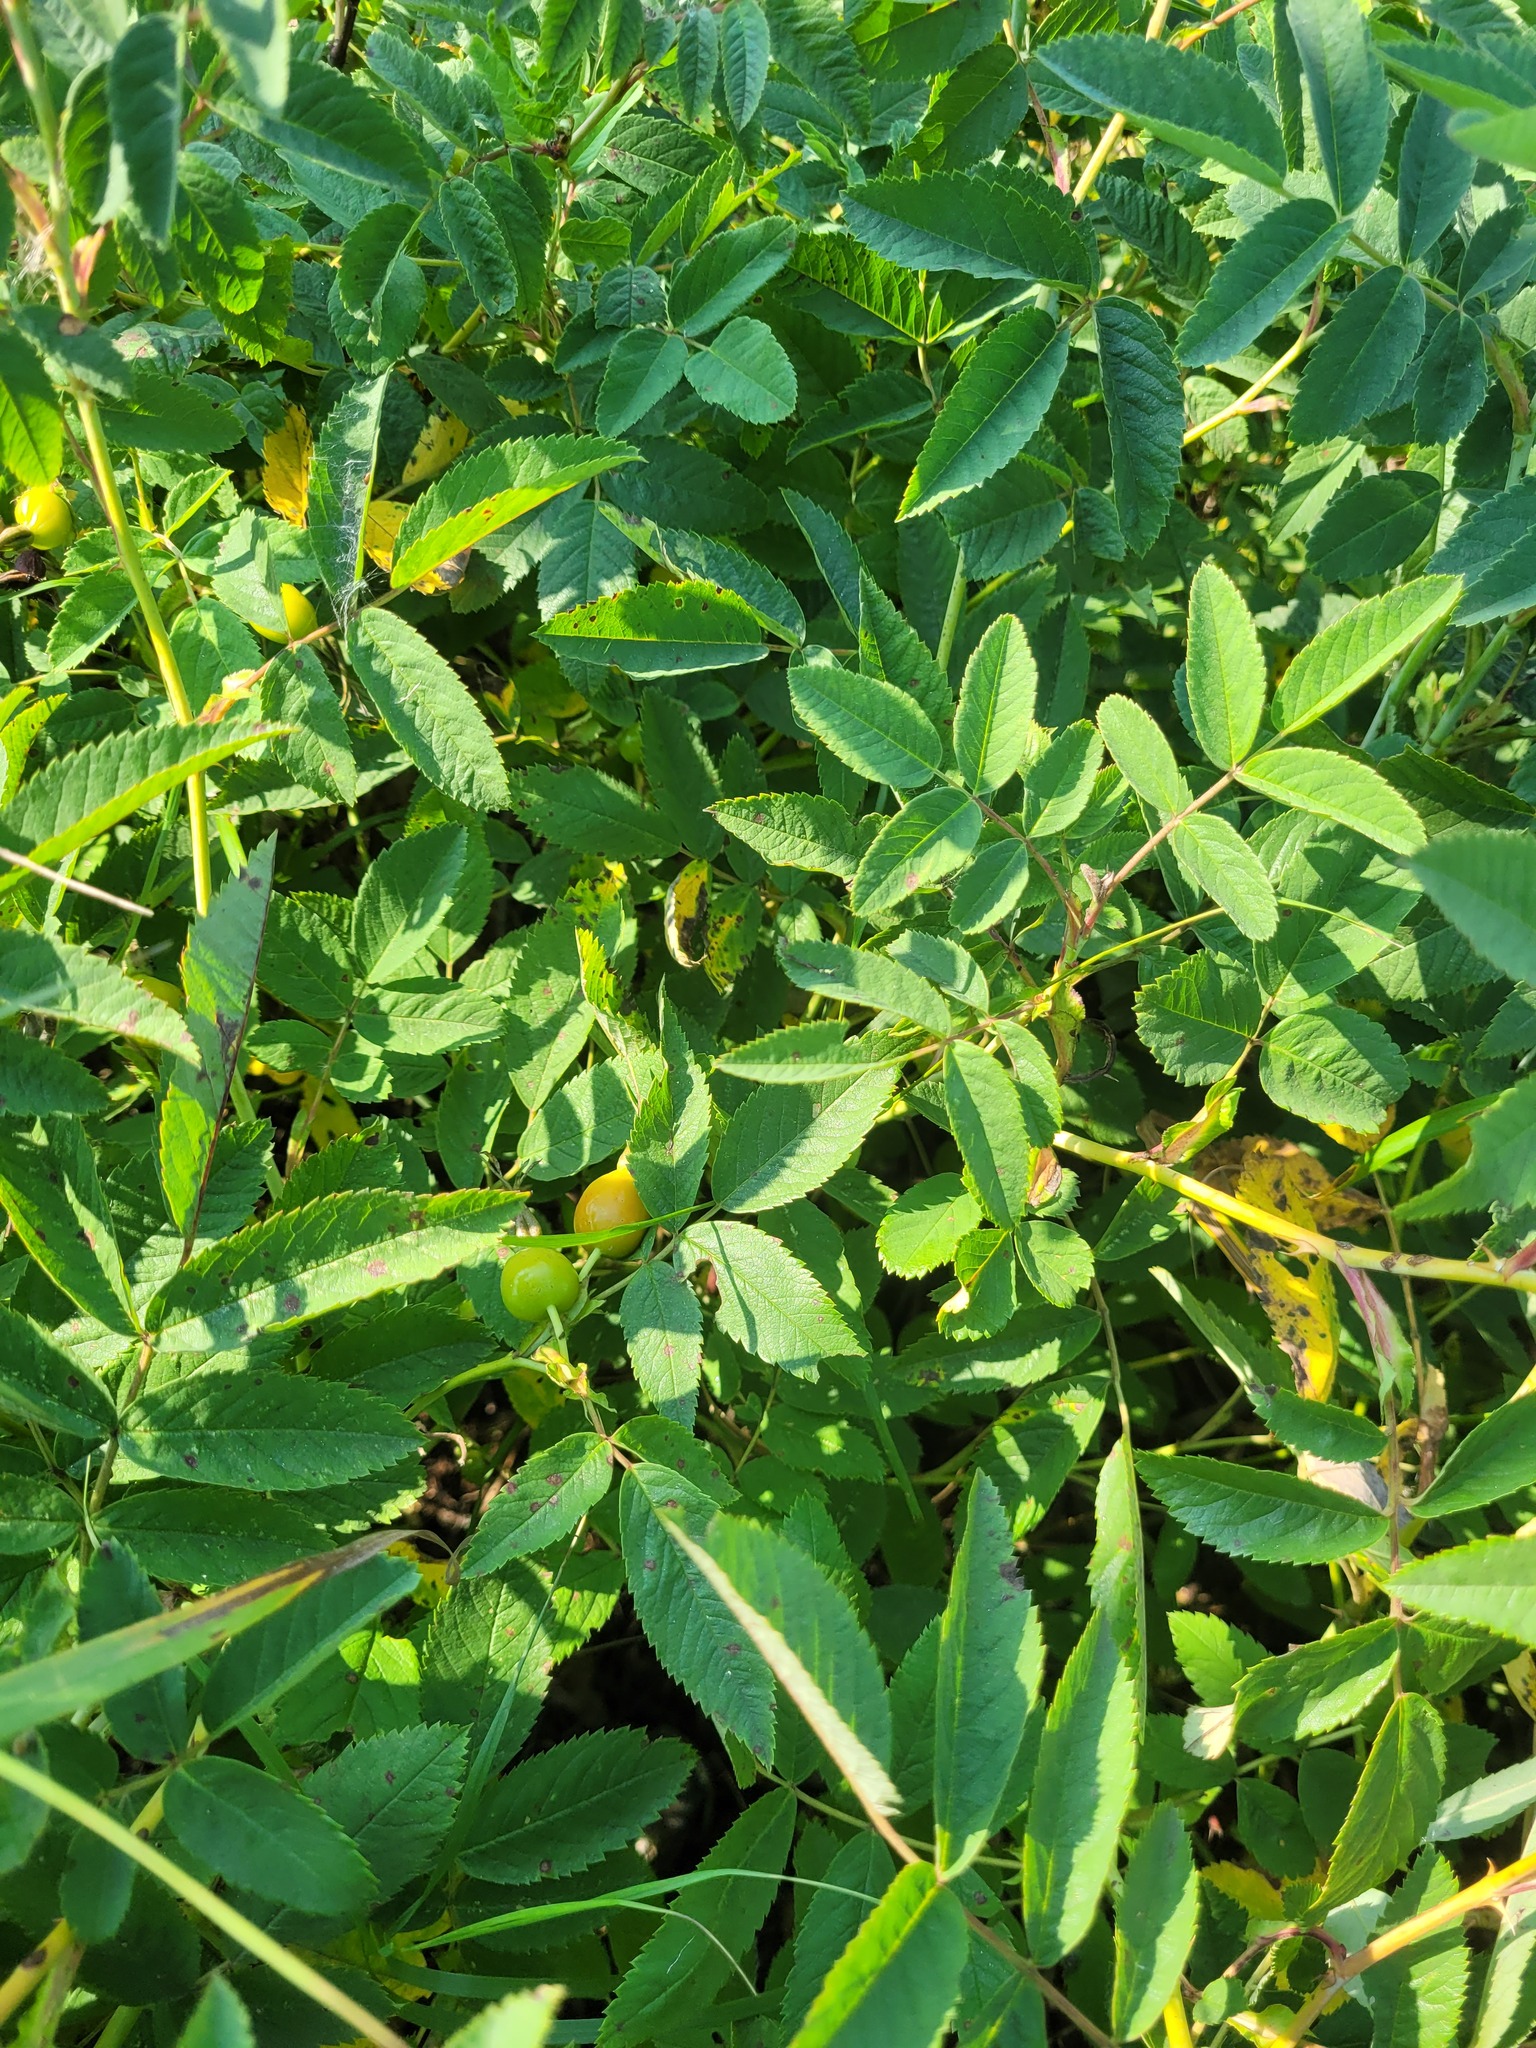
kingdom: Plantae
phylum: Tracheophyta
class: Magnoliopsida
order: Rosales
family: Rosaceae
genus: Rosa
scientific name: Rosa majalis
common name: Cinnamon rose
